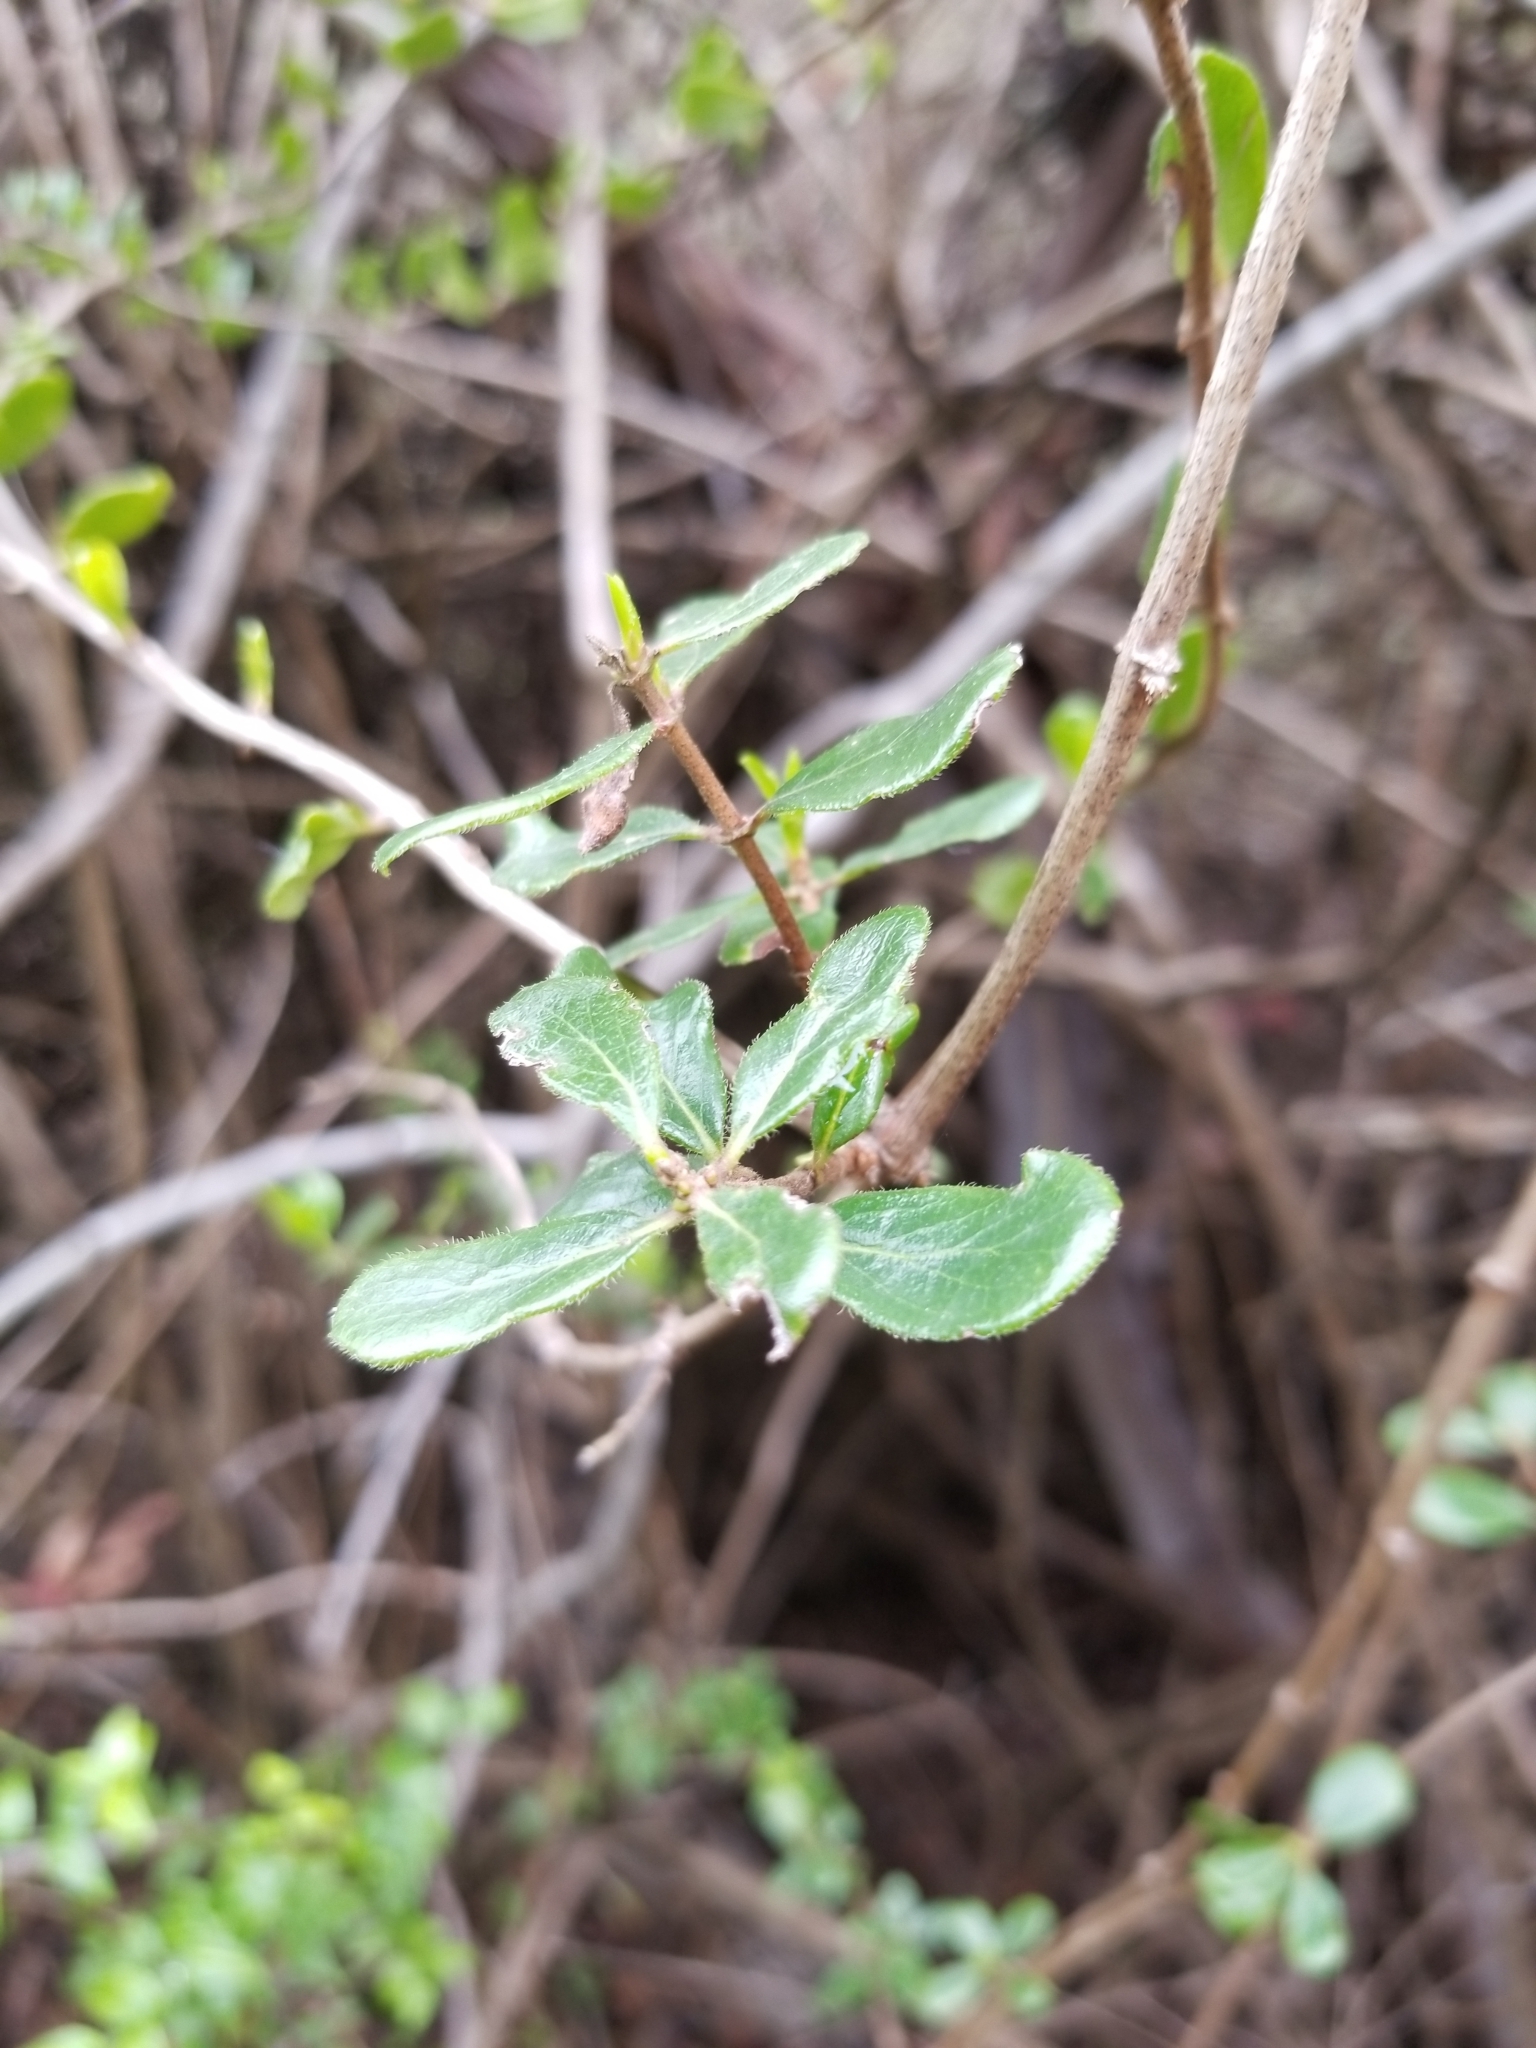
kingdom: Plantae
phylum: Tracheophyta
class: Magnoliopsida
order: Dipsacales
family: Caprifoliaceae
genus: Lonicera
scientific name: Lonicera subspicata
